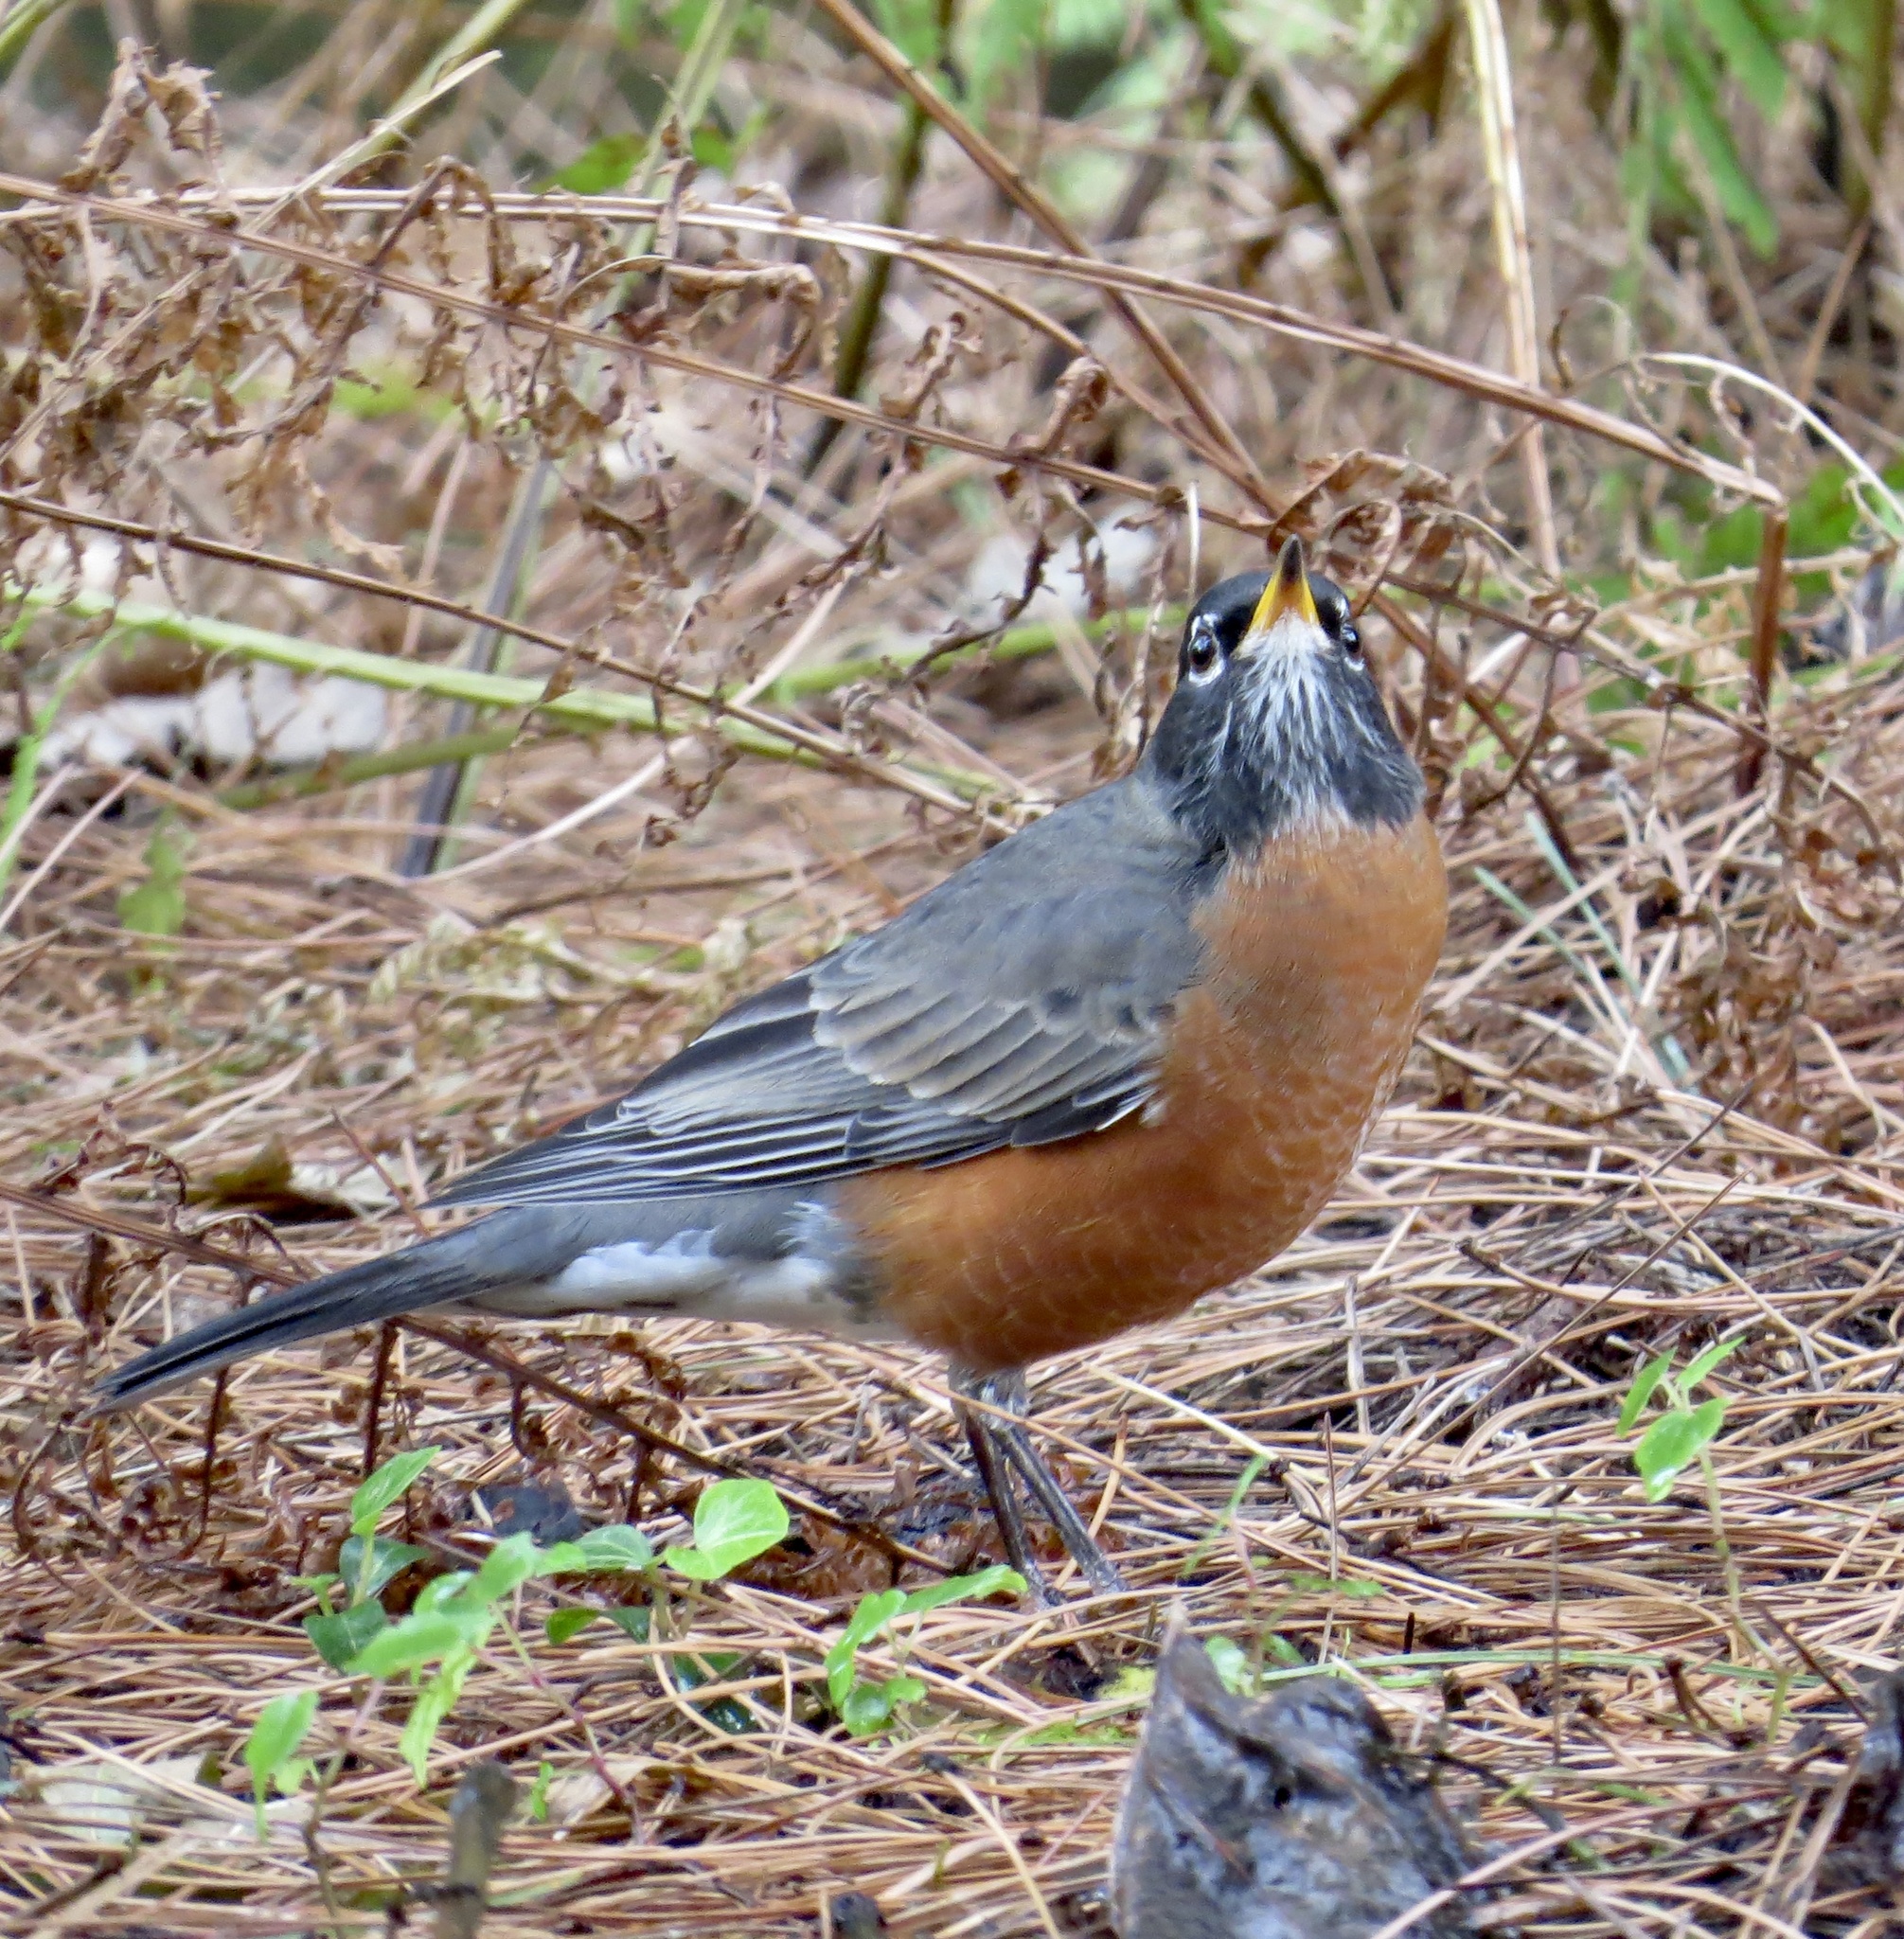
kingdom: Animalia
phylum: Chordata
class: Aves
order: Passeriformes
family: Turdidae
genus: Turdus
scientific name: Turdus migratorius
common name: American robin
